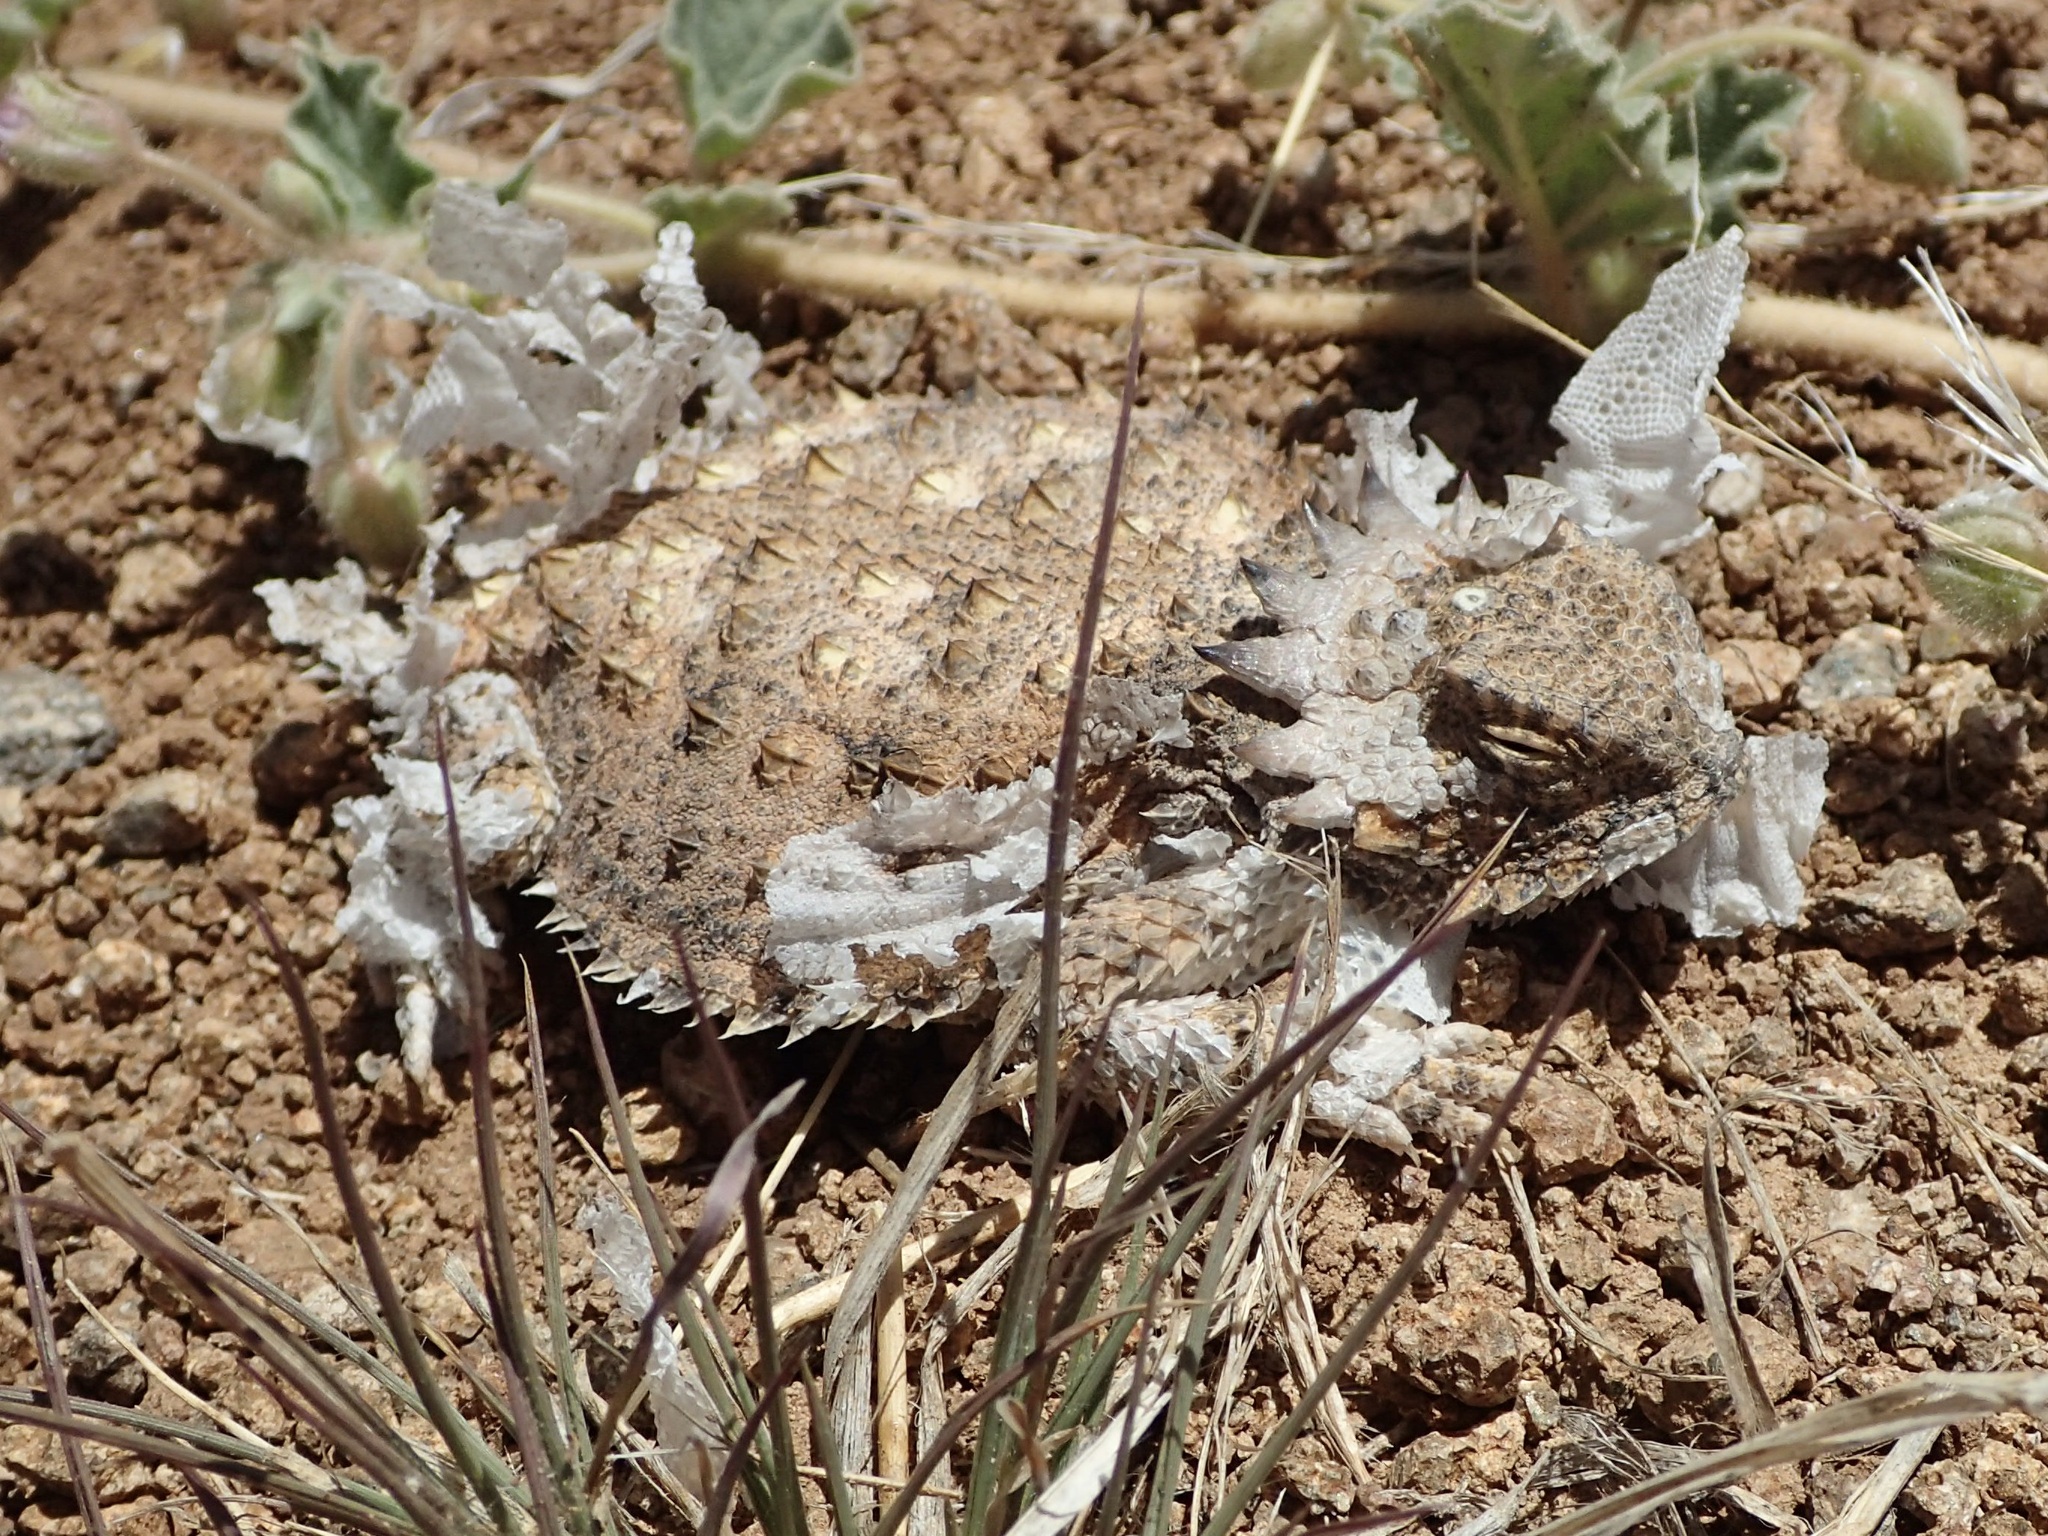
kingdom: Animalia
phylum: Chordata
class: Squamata
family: Phrynosomatidae
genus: Phrynosoma
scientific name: Phrynosoma solare
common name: Regal horned lizard
